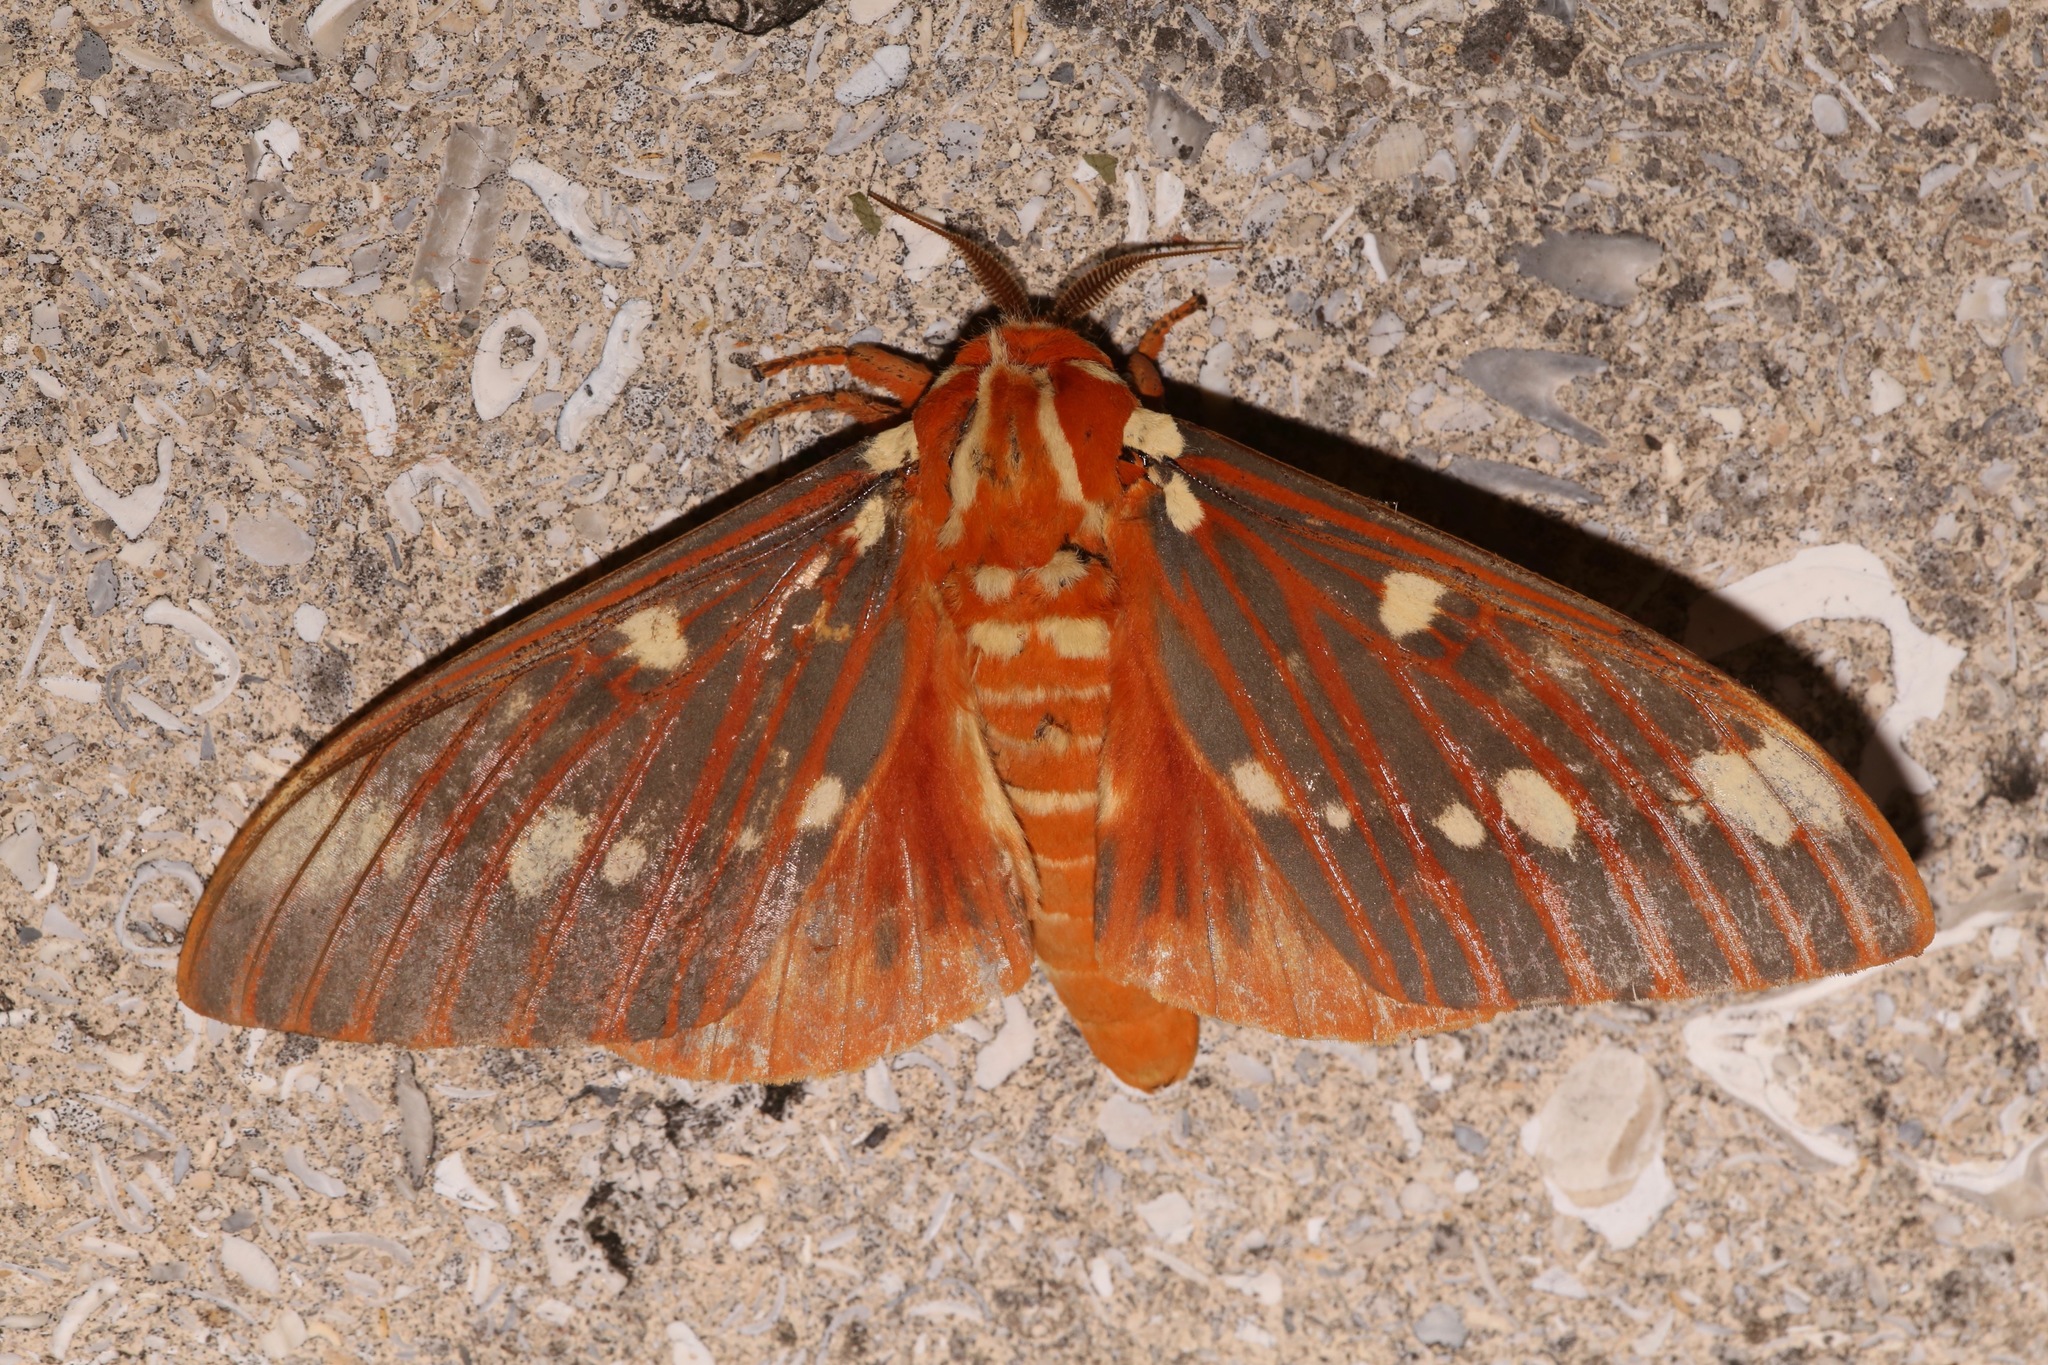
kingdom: Animalia
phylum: Arthropoda
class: Insecta
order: Lepidoptera
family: Saturniidae
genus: Citheronia
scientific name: Citheronia regalis
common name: Hickory horned devil
